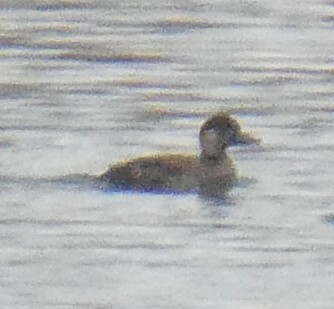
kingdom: Animalia
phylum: Chordata
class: Aves
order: Anseriformes
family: Anatidae
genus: Melanitta
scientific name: Melanitta nigra
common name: Common scoter
